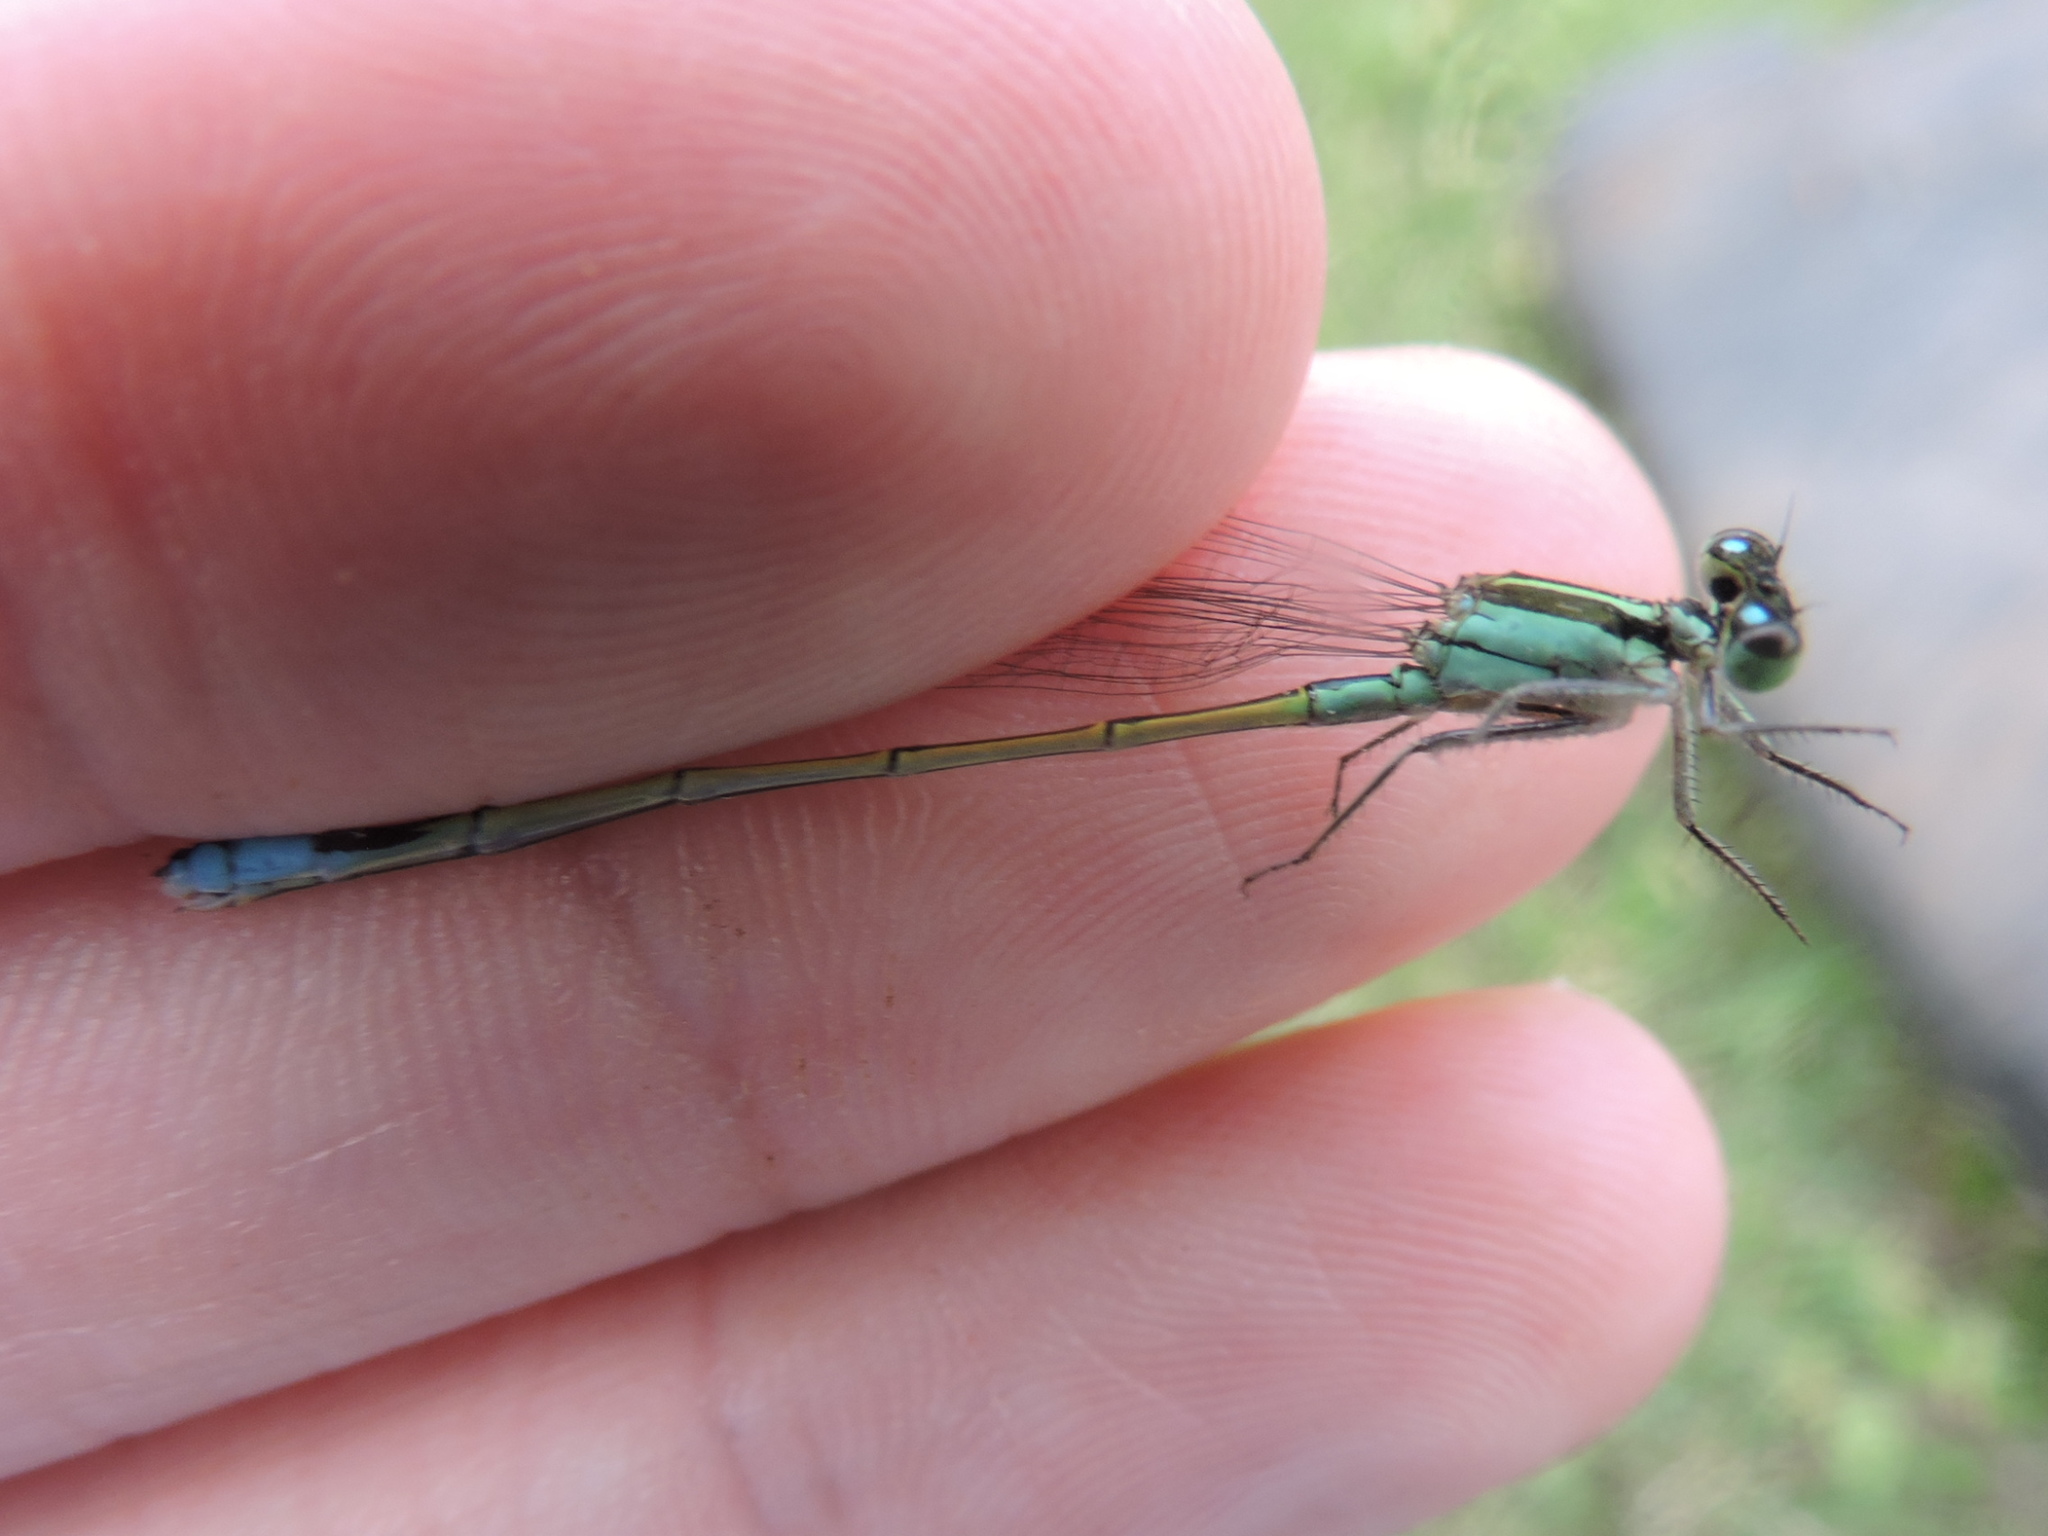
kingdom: Animalia
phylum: Arthropoda
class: Insecta
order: Odonata
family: Coenagrionidae
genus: Ischnura
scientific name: Ischnura ramburii
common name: Rambur's forktail
